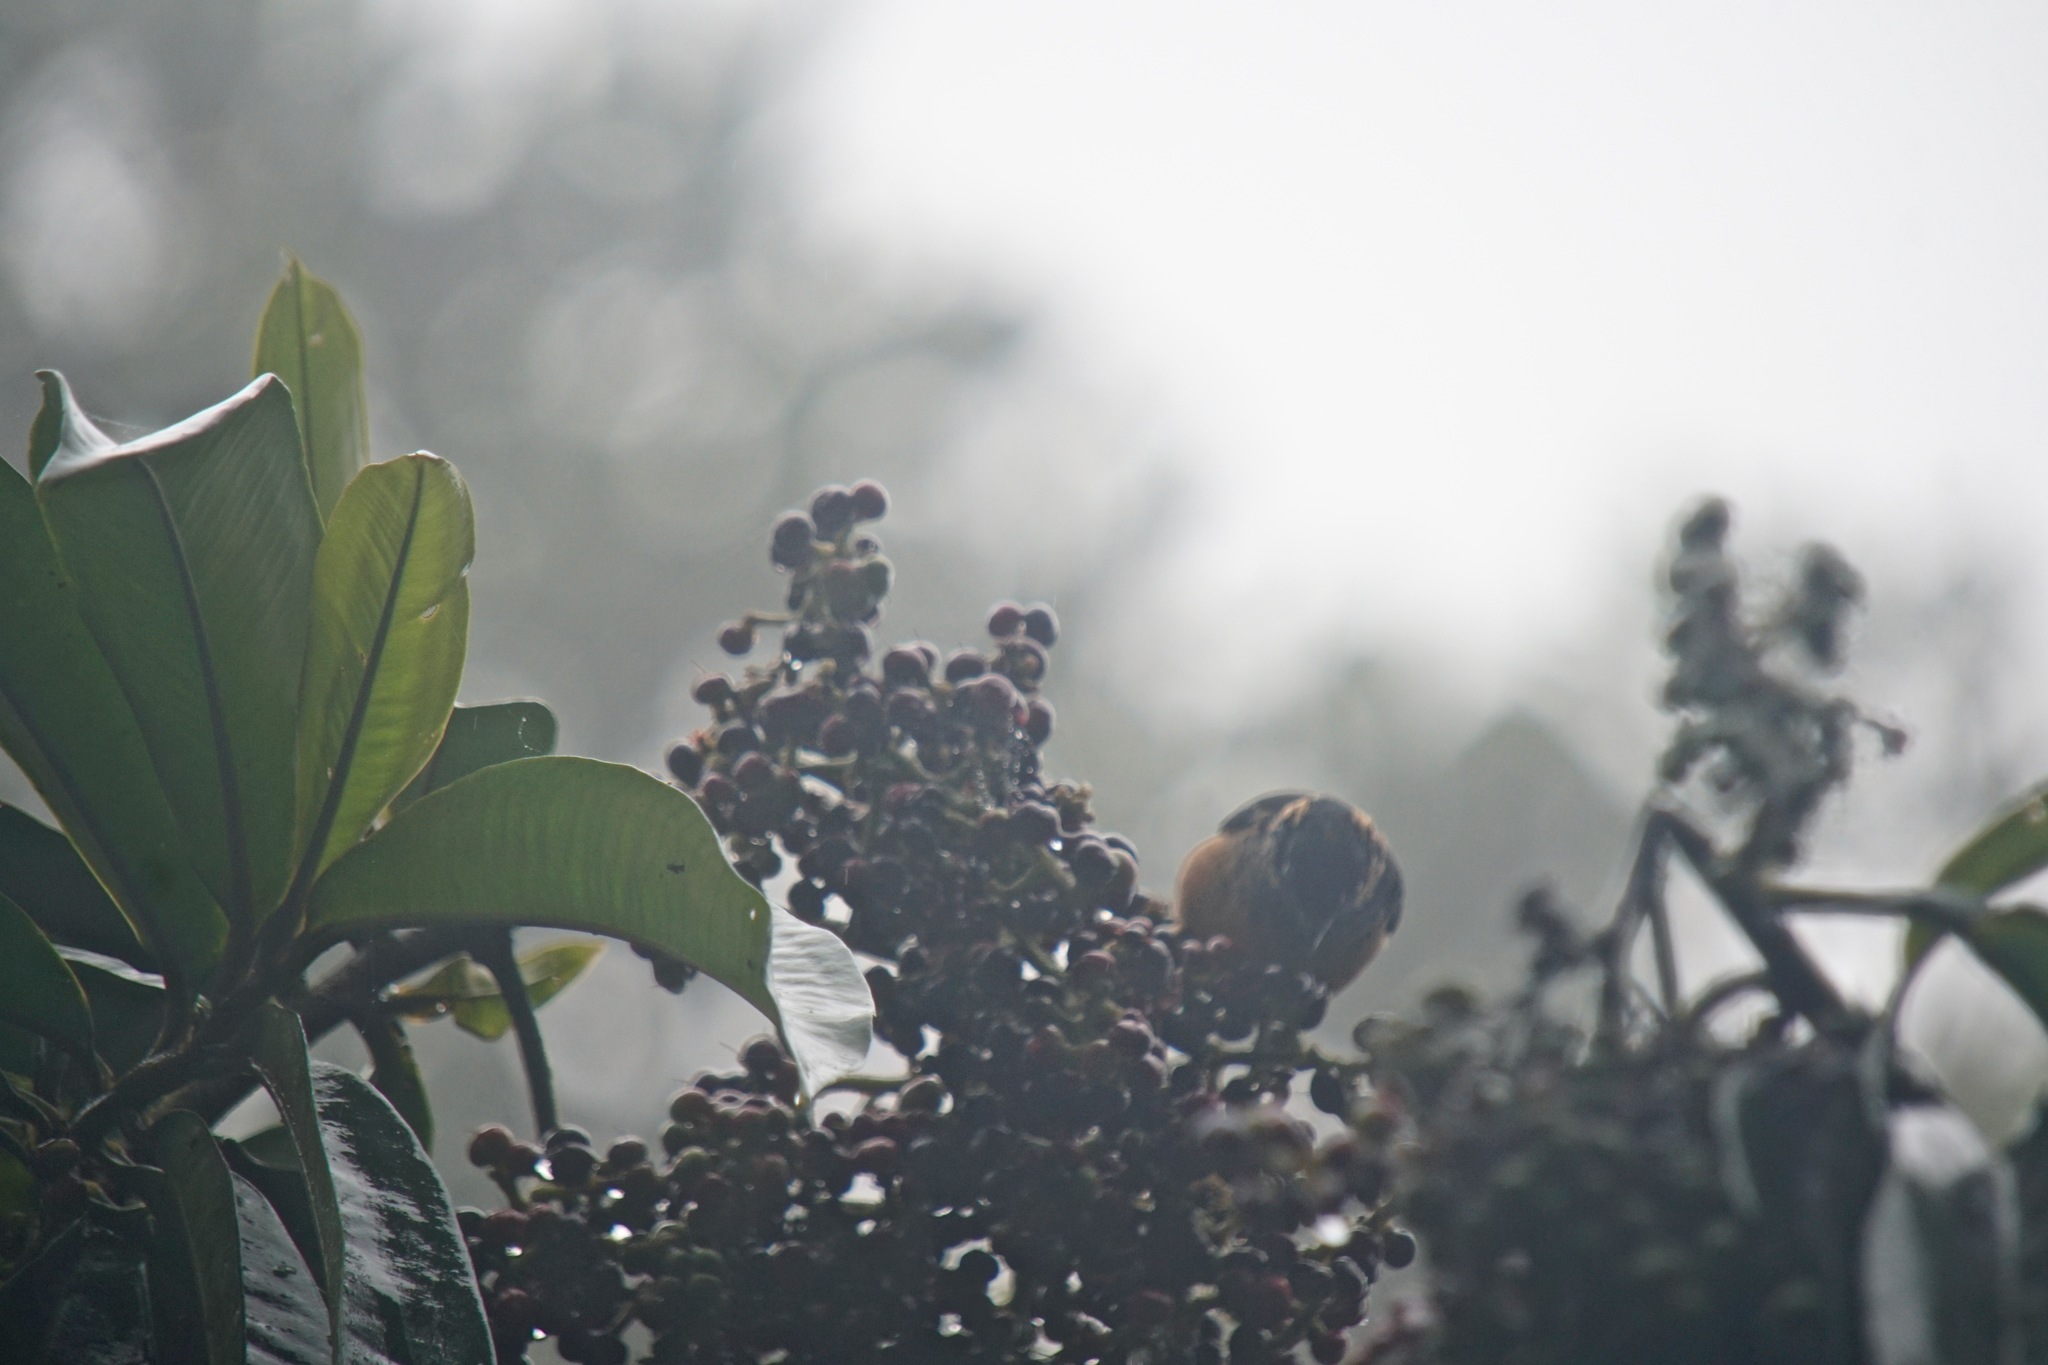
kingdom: Animalia
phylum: Chordata
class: Aves
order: Passeriformes
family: Thraupidae
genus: Tangara
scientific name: Tangara dowii
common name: Spangle-cheeked tanager
